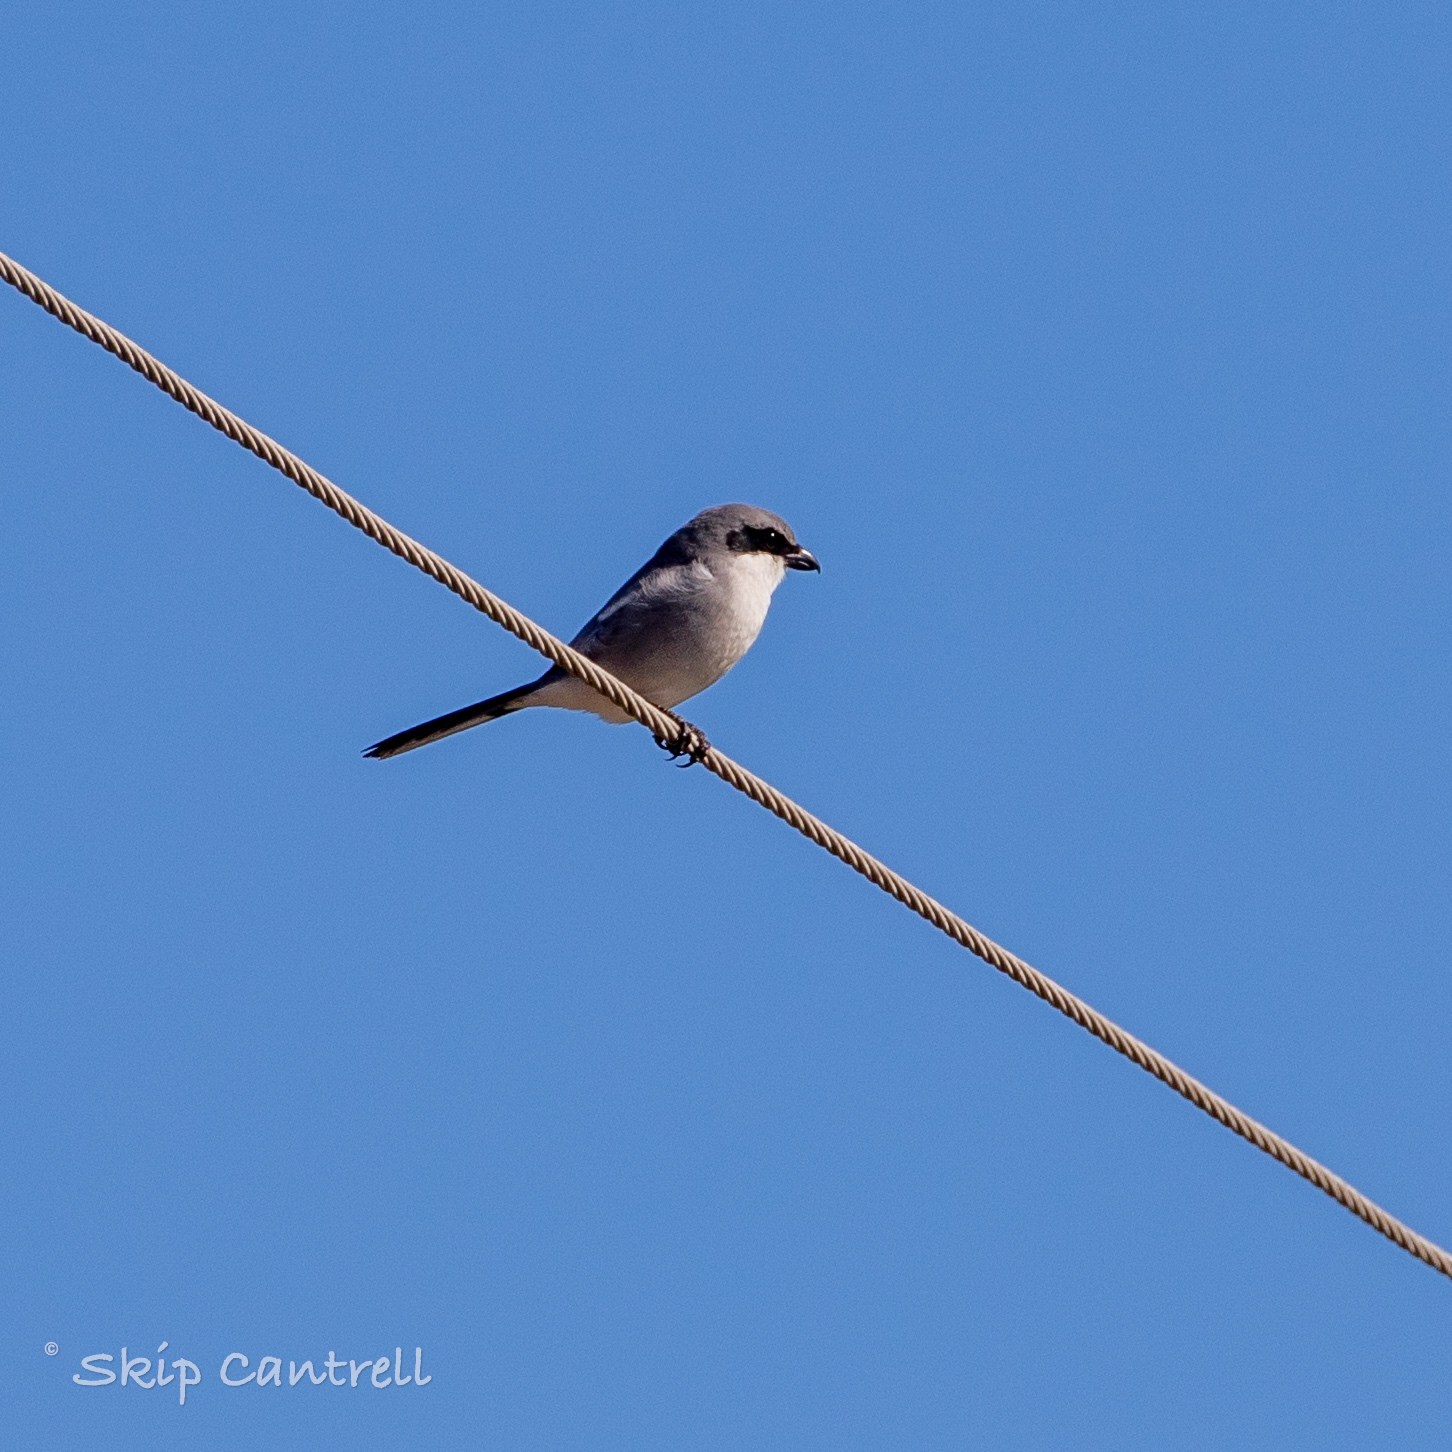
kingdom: Animalia
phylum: Chordata
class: Aves
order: Passeriformes
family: Laniidae
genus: Lanius
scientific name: Lanius ludovicianus
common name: Loggerhead shrike
